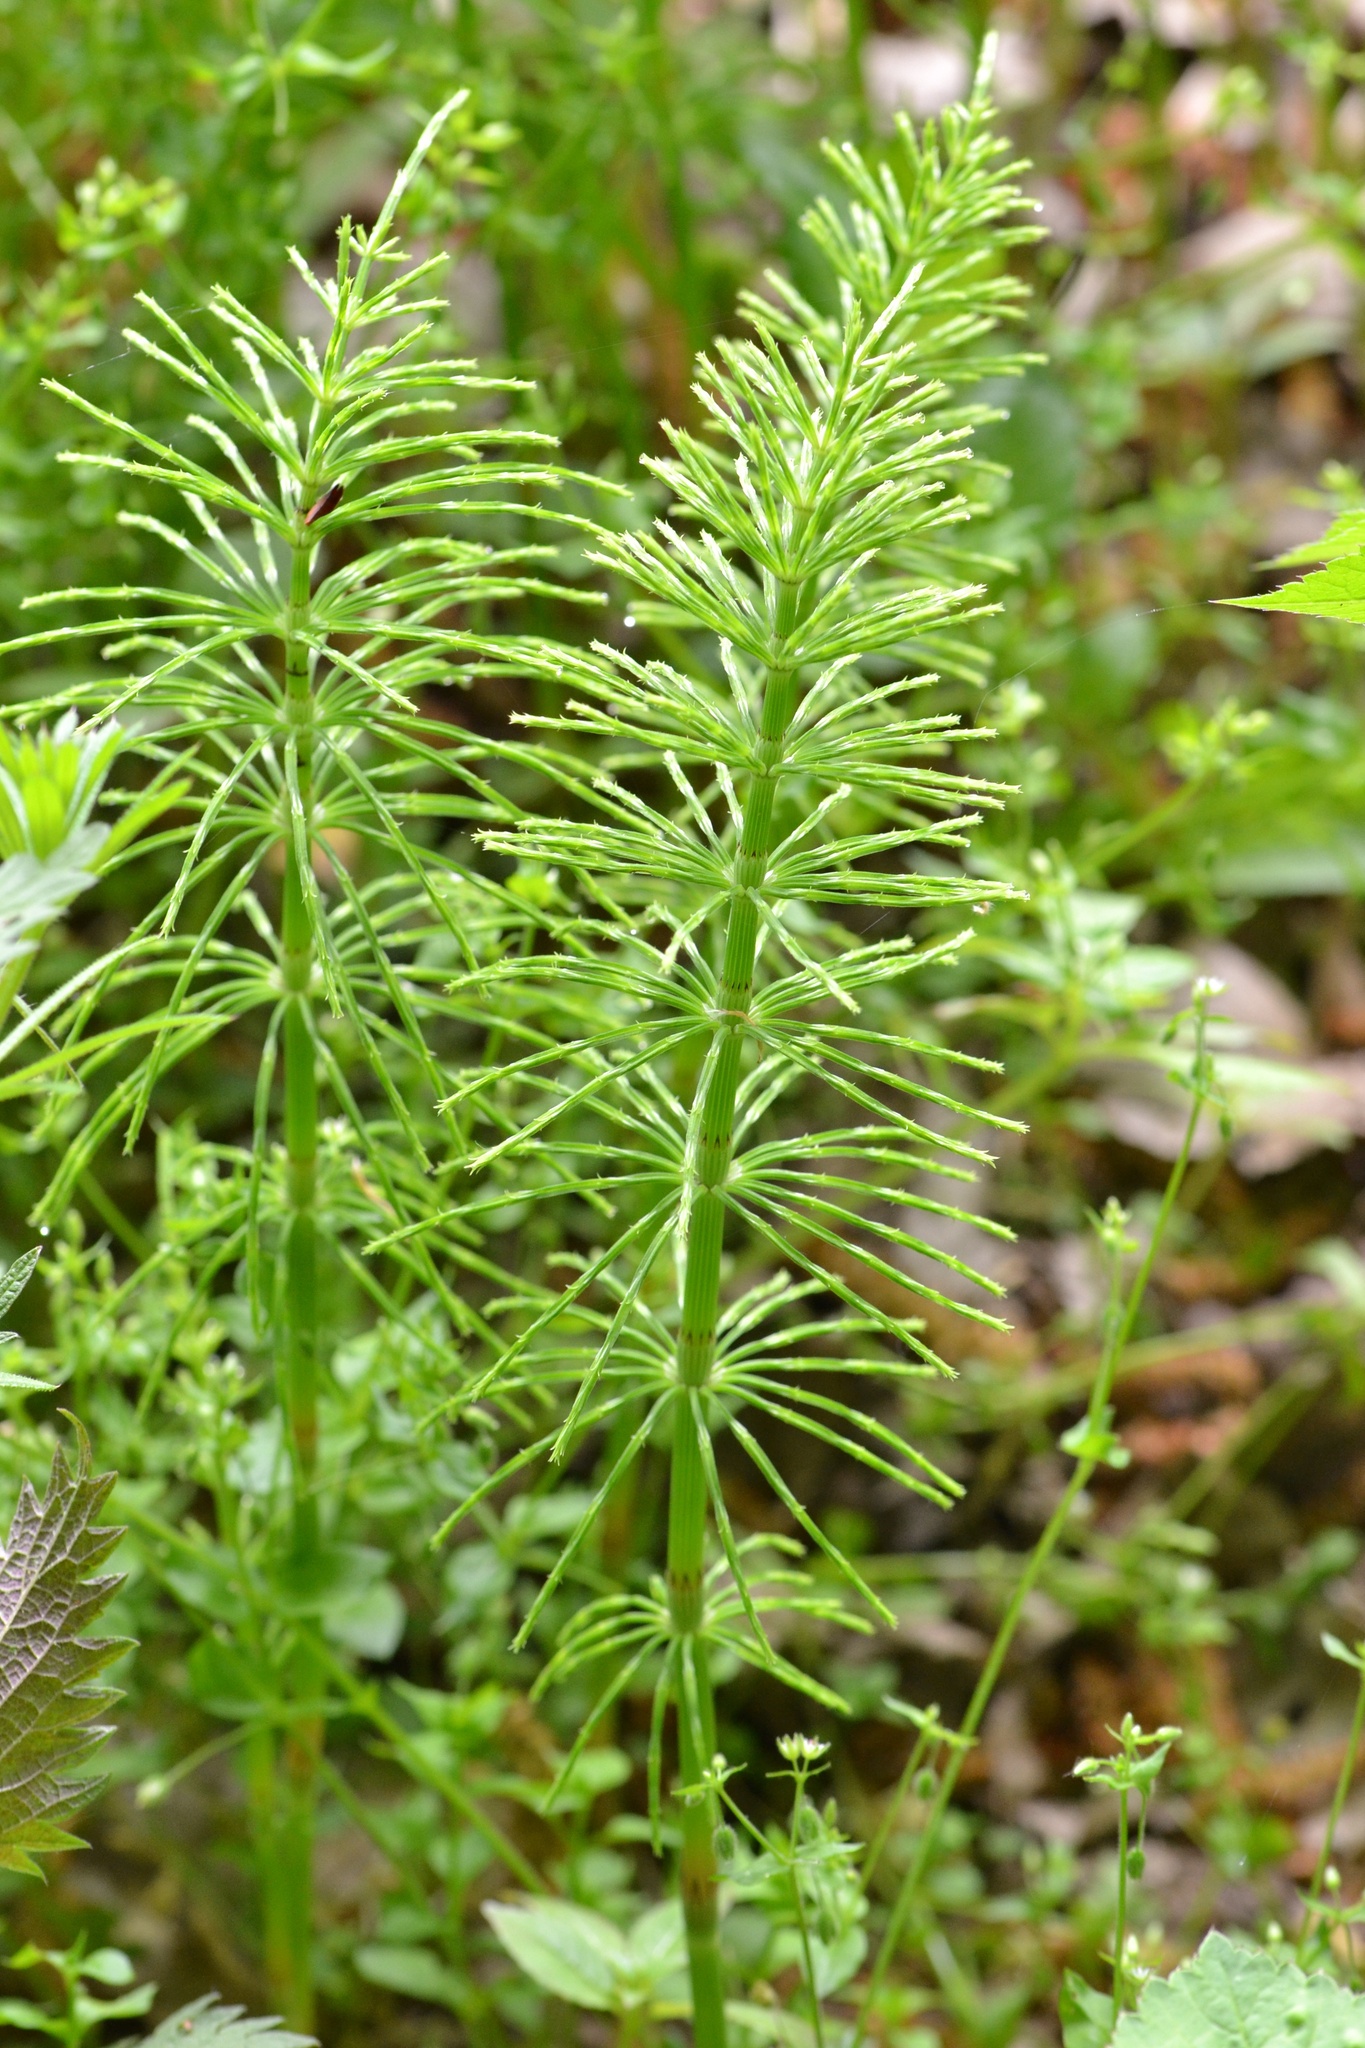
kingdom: Plantae
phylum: Tracheophyta
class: Polypodiopsida
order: Equisetales
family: Equisetaceae
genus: Equisetum
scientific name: Equisetum arvense
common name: Field horsetail
